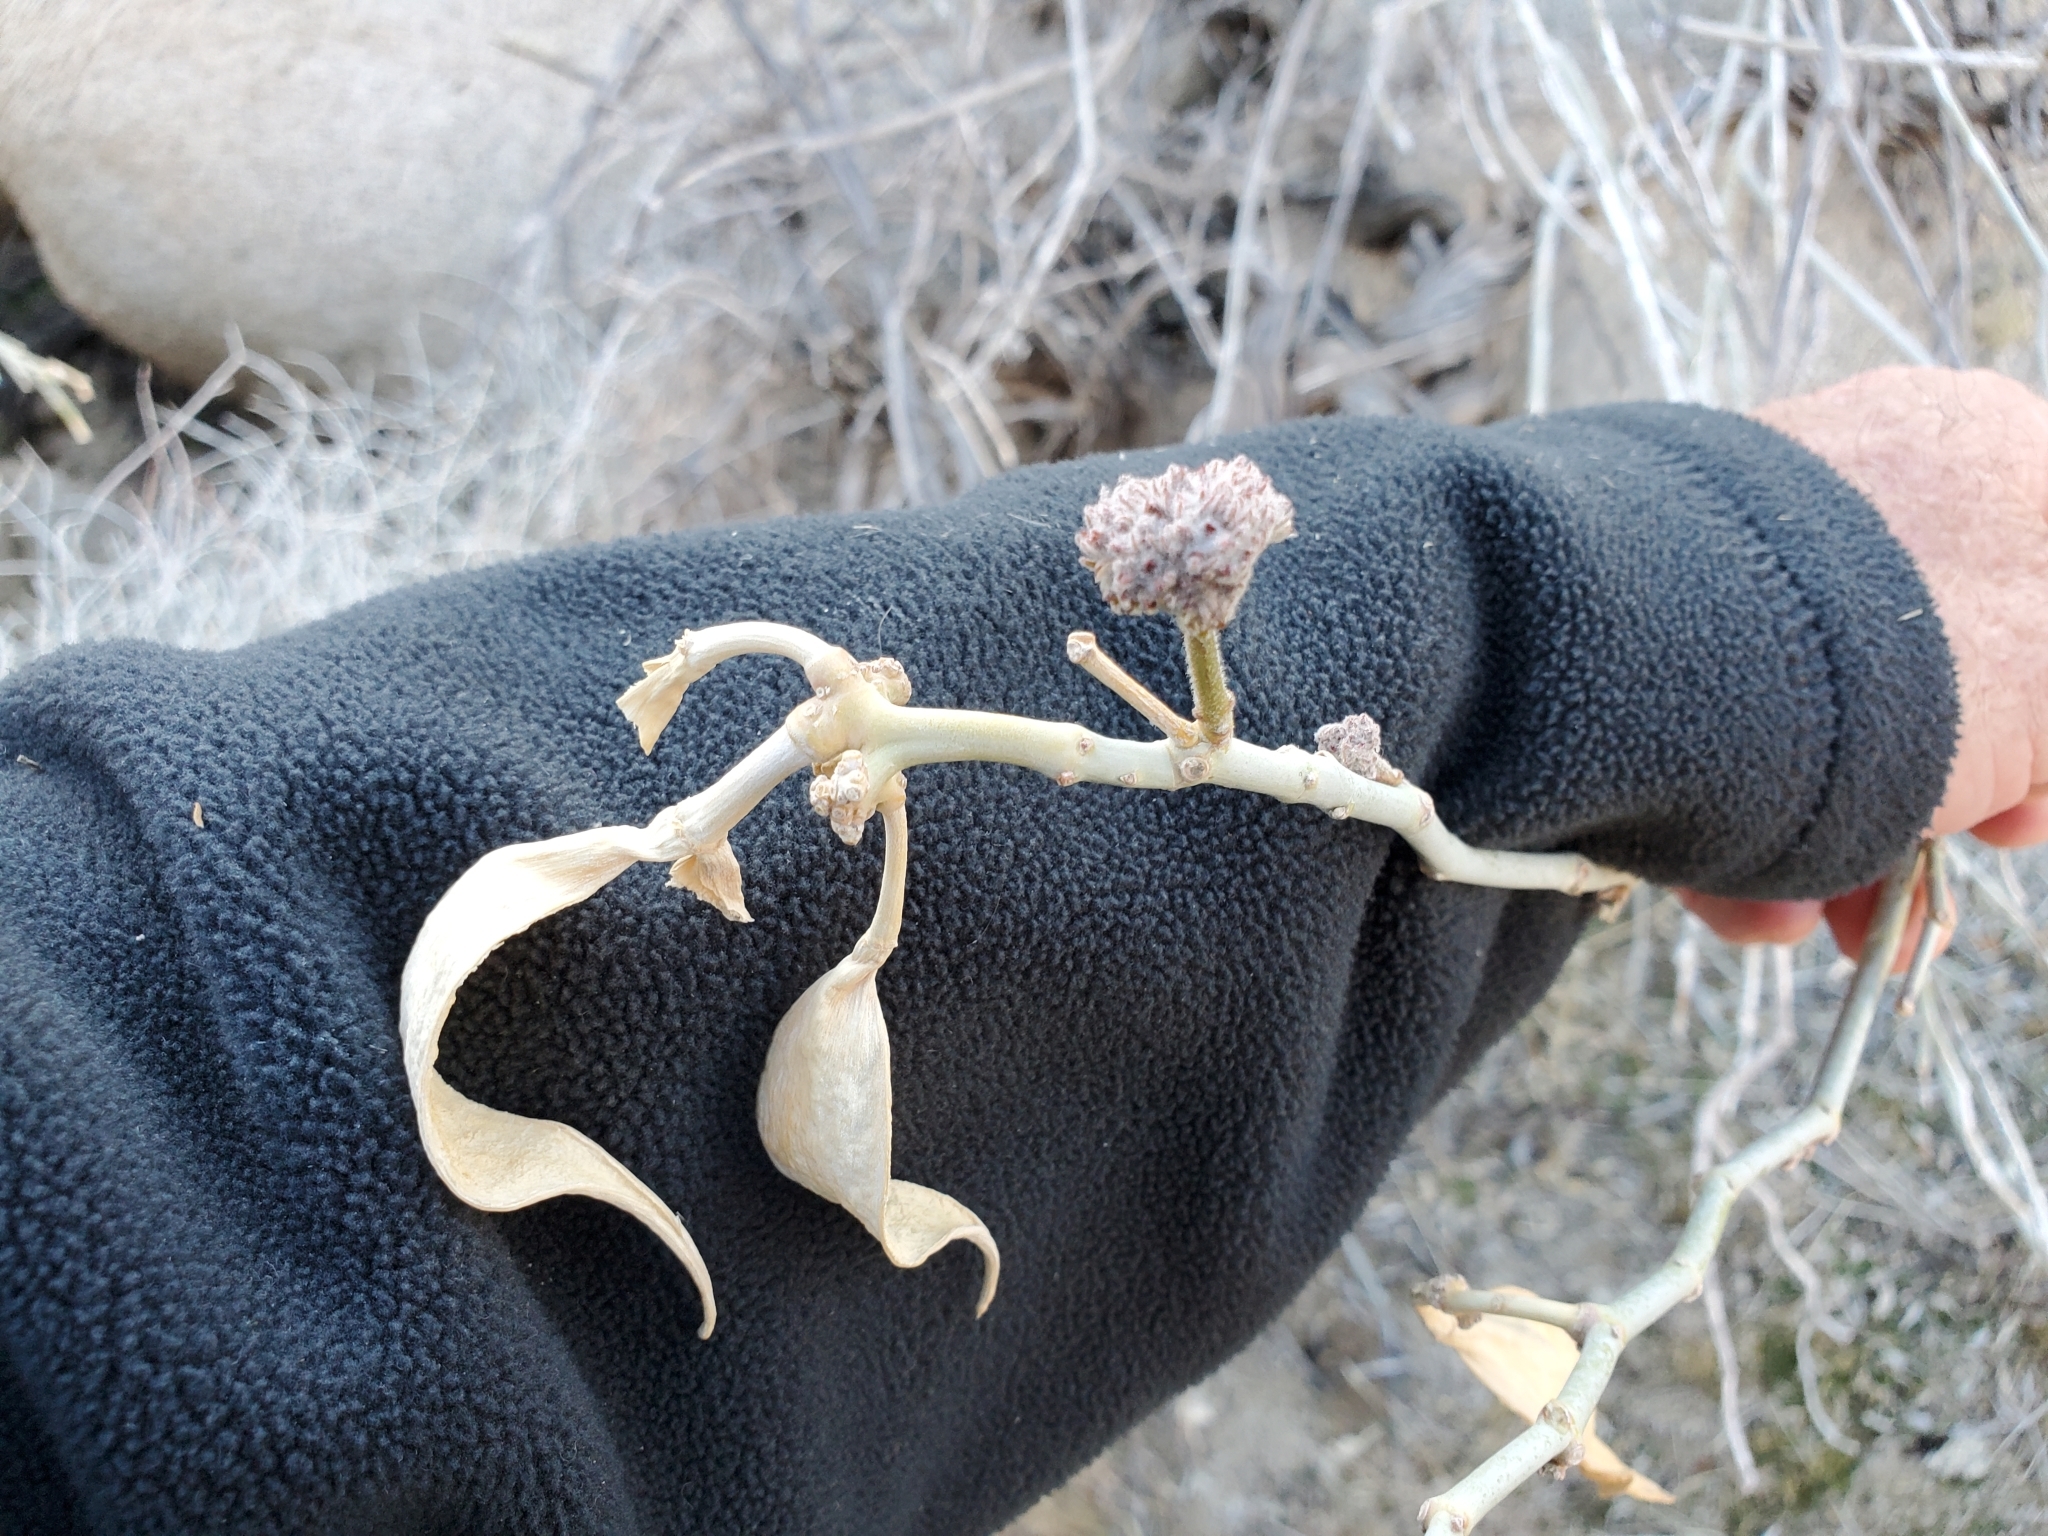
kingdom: Plantae
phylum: Tracheophyta
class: Magnoliopsida
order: Gentianales
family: Apocynaceae
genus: Asclepias
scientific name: Asclepias albicans
